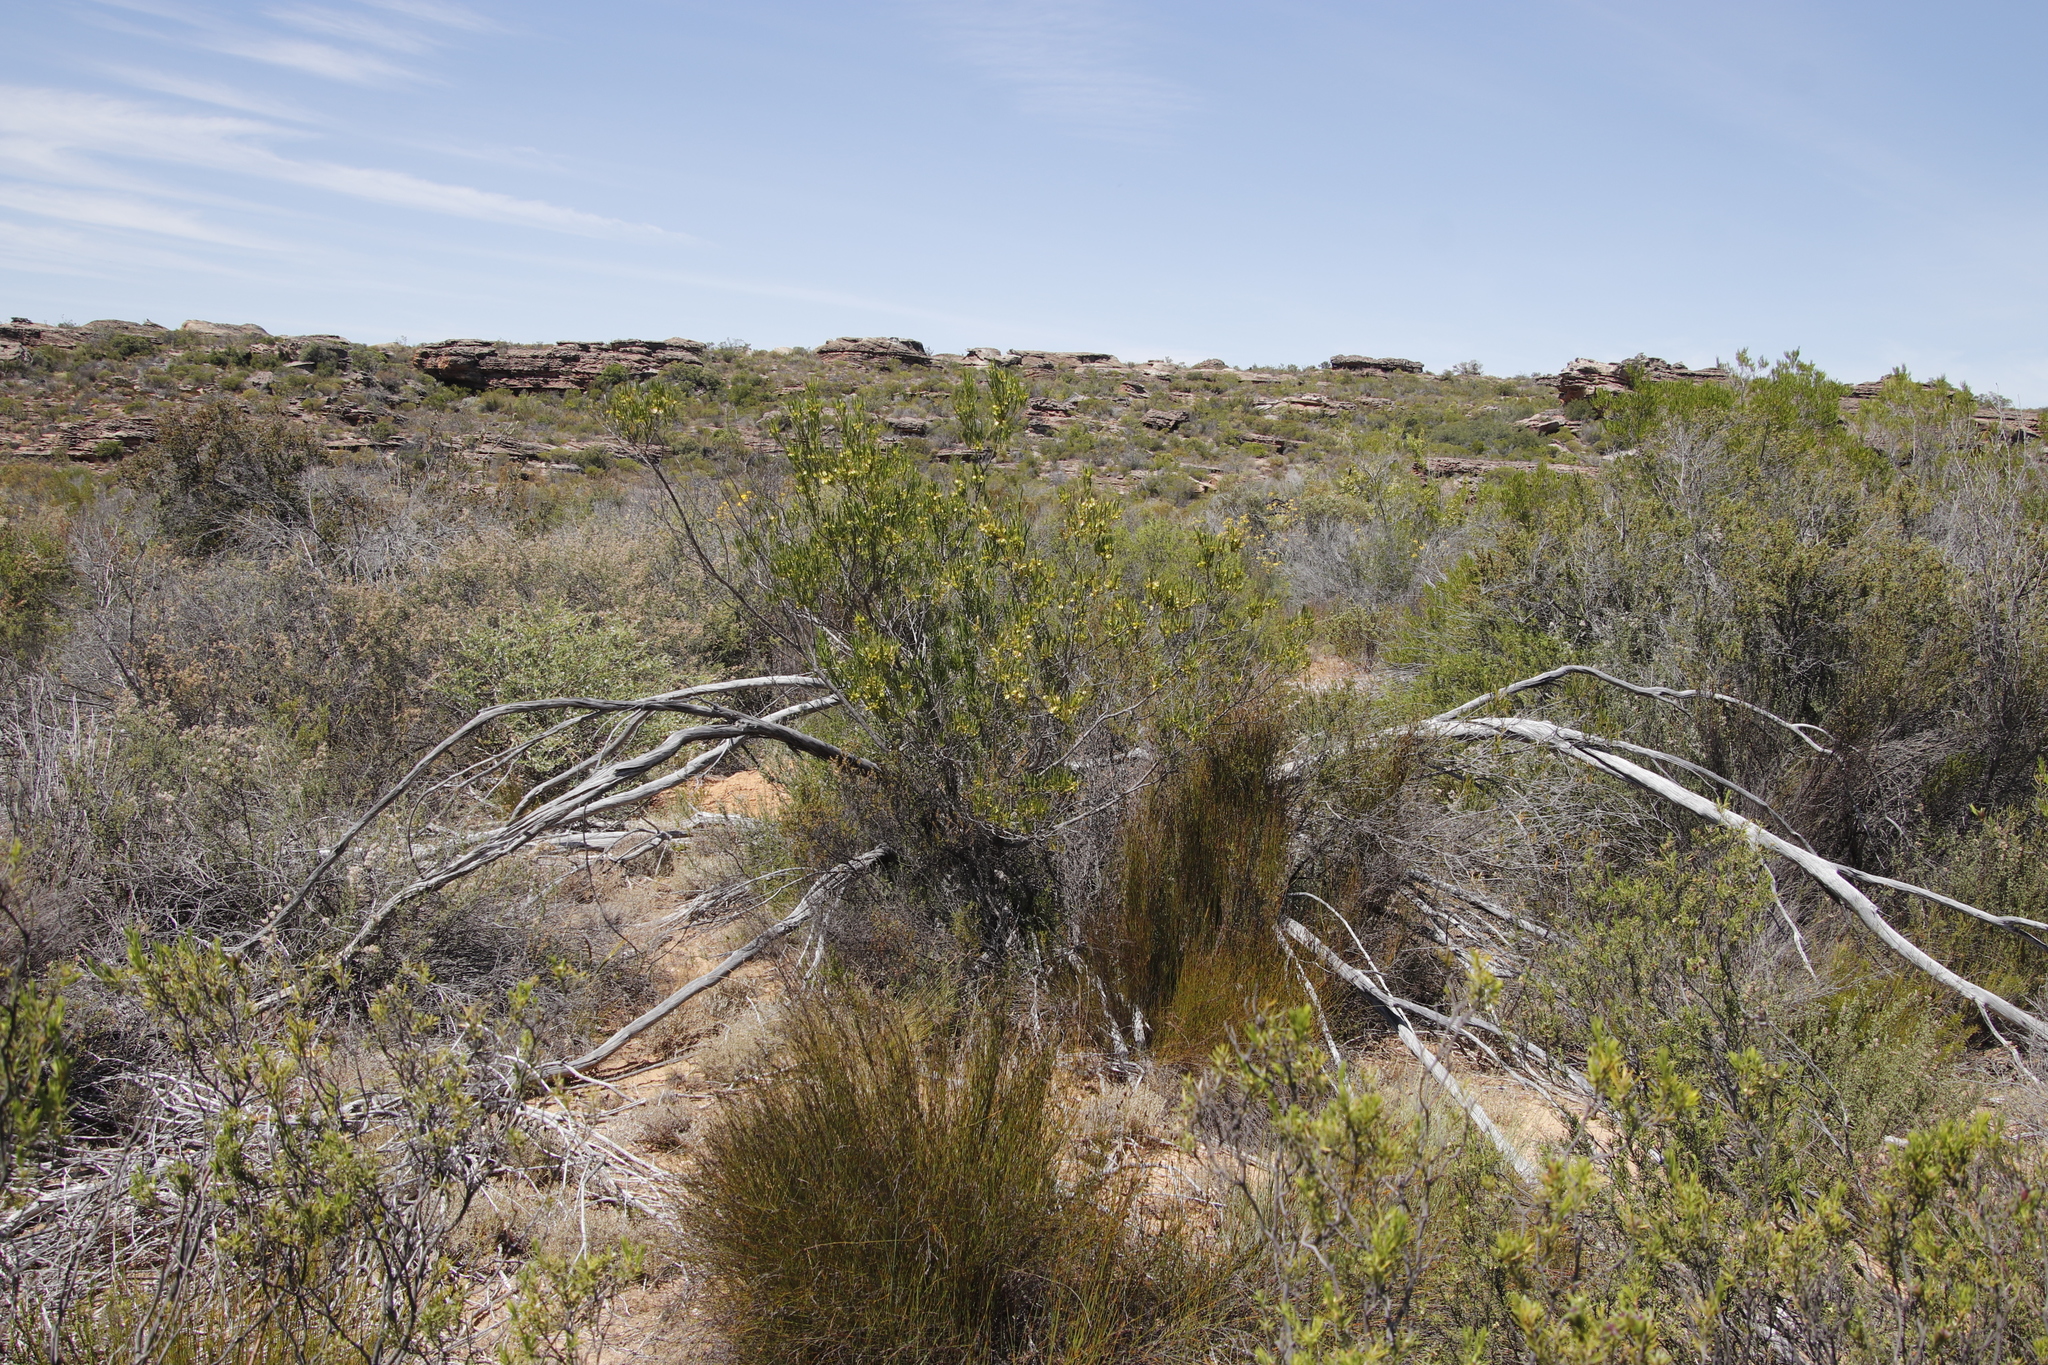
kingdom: Plantae
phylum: Tracheophyta
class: Magnoliopsida
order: Sapindales
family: Sapindaceae
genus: Dodonaea
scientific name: Dodonaea viscosa
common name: Hopbush
